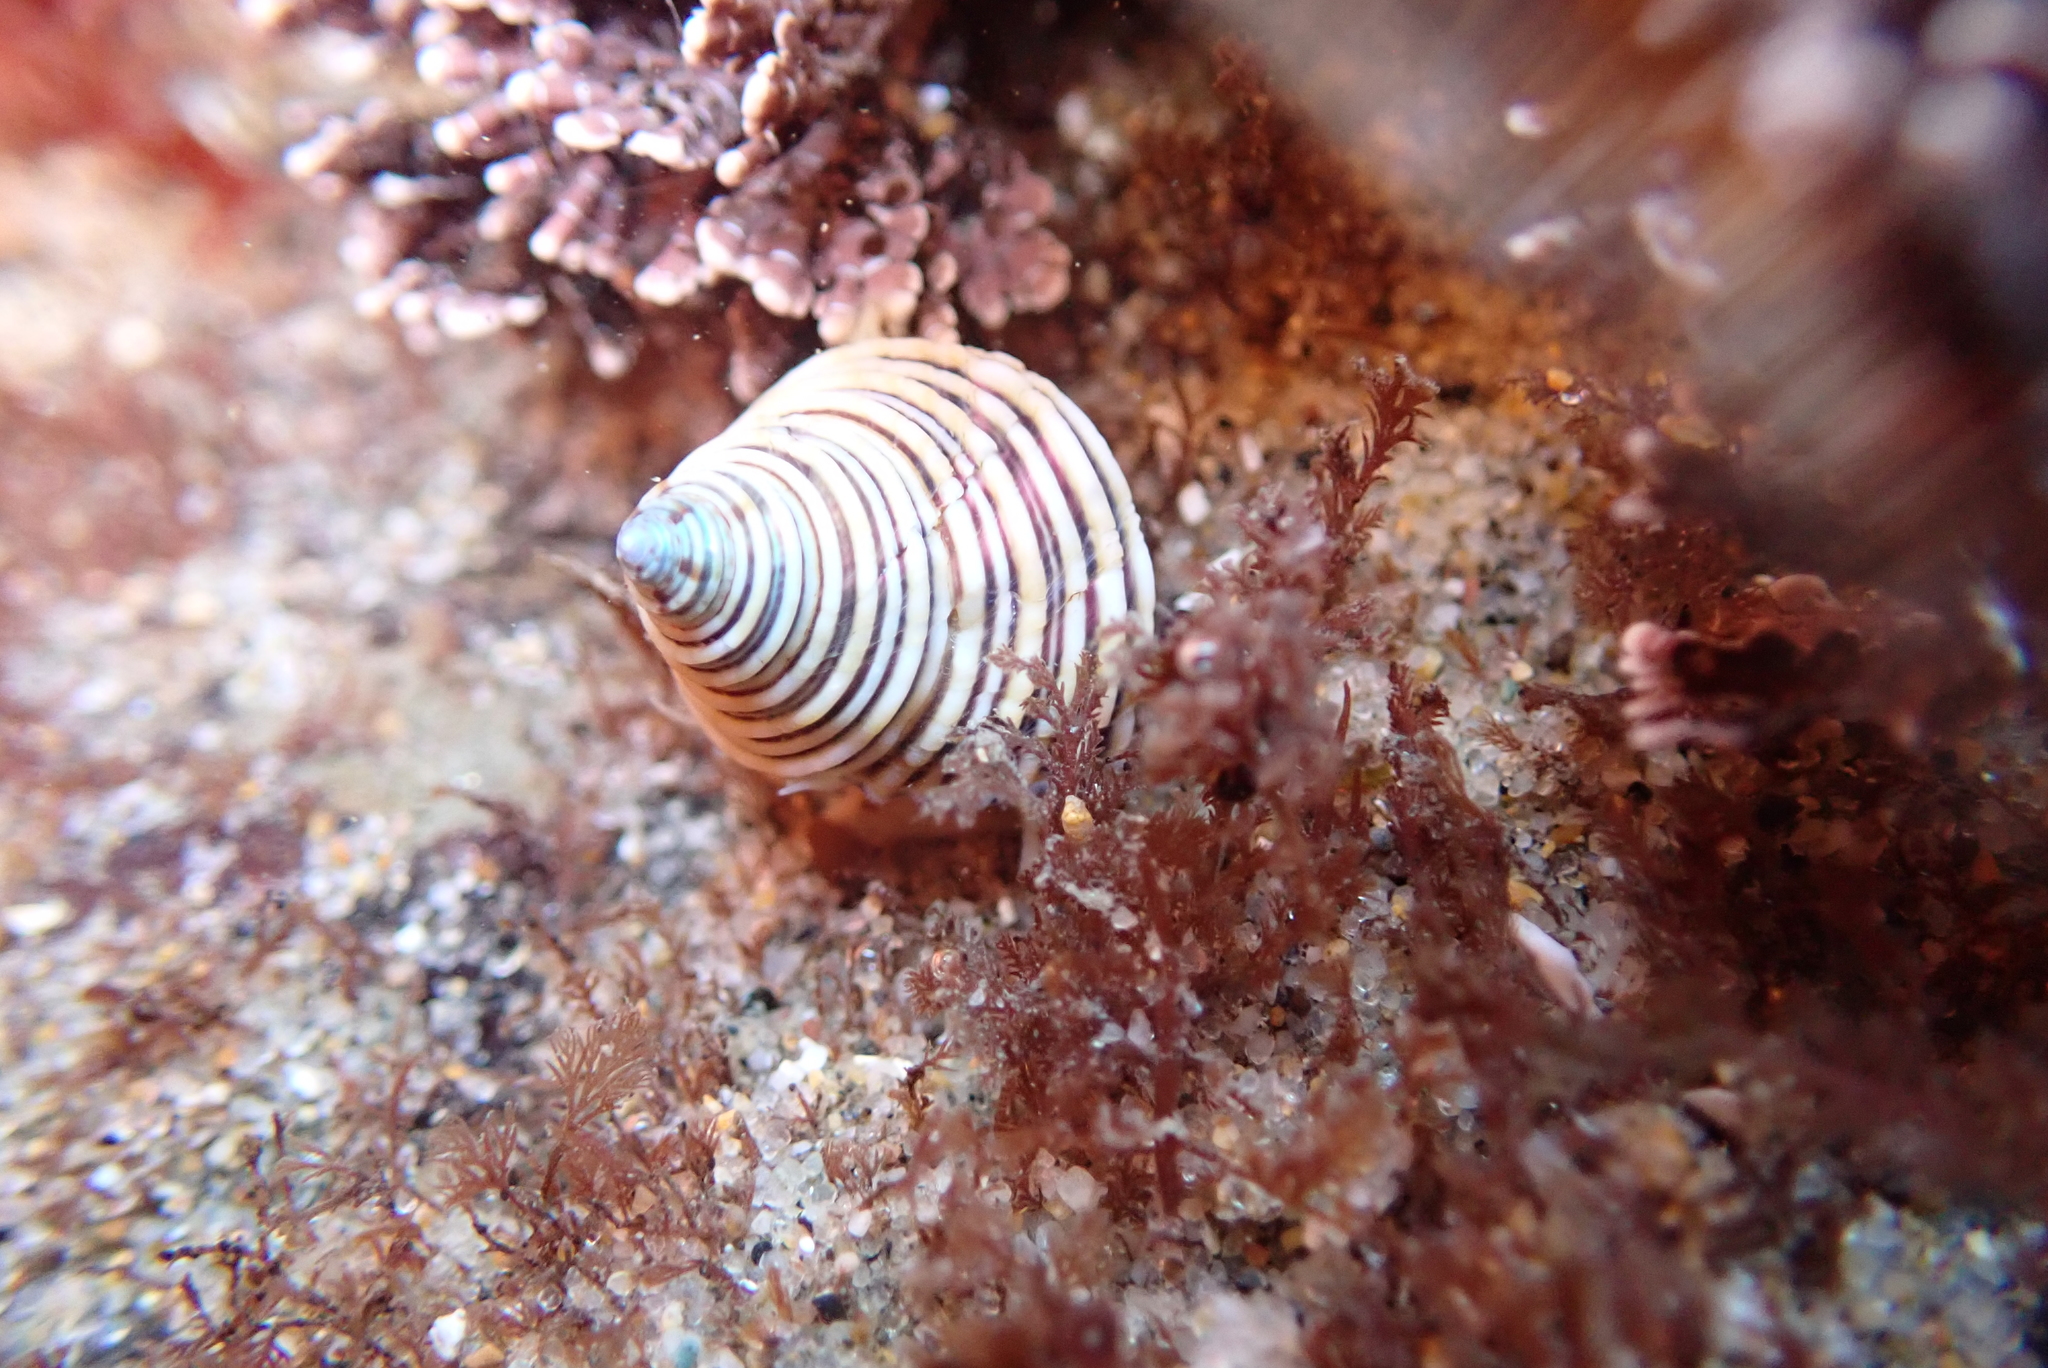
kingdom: Animalia
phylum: Mollusca
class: Gastropoda
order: Trochida
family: Calliostomatidae
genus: Calliostoma
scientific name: Calliostoma canaliculatum
